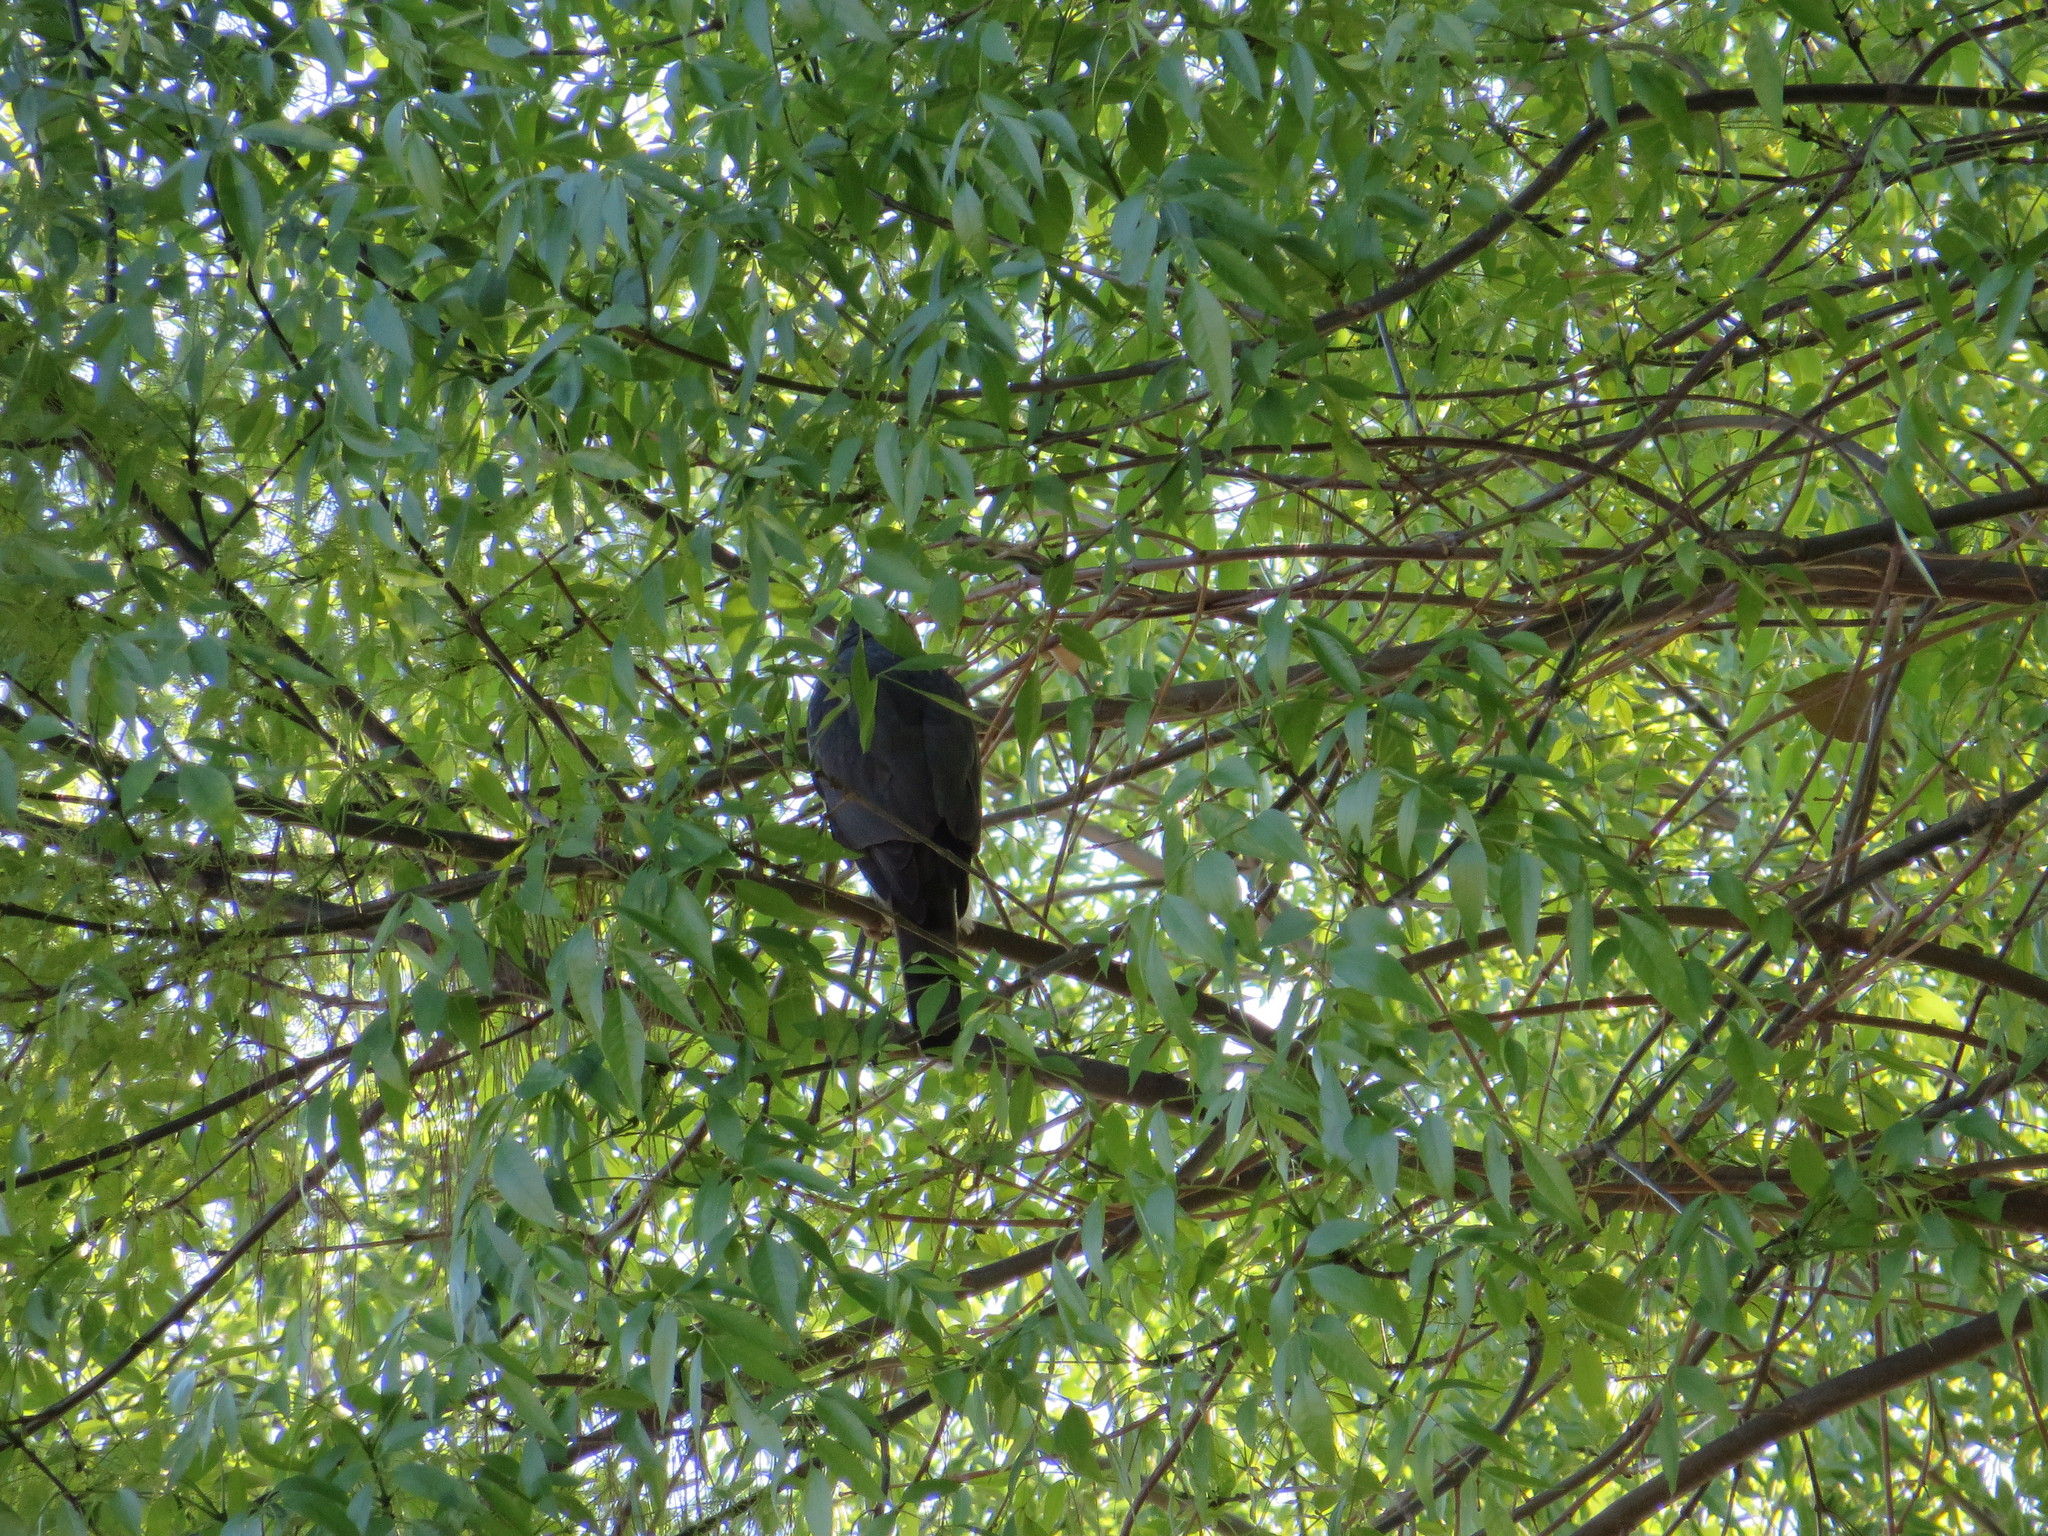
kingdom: Animalia
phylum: Chordata
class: Aves
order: Accipitriformes
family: Accipitridae
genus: Accipiter
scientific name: Accipiter cooperii
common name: Cooper's hawk
